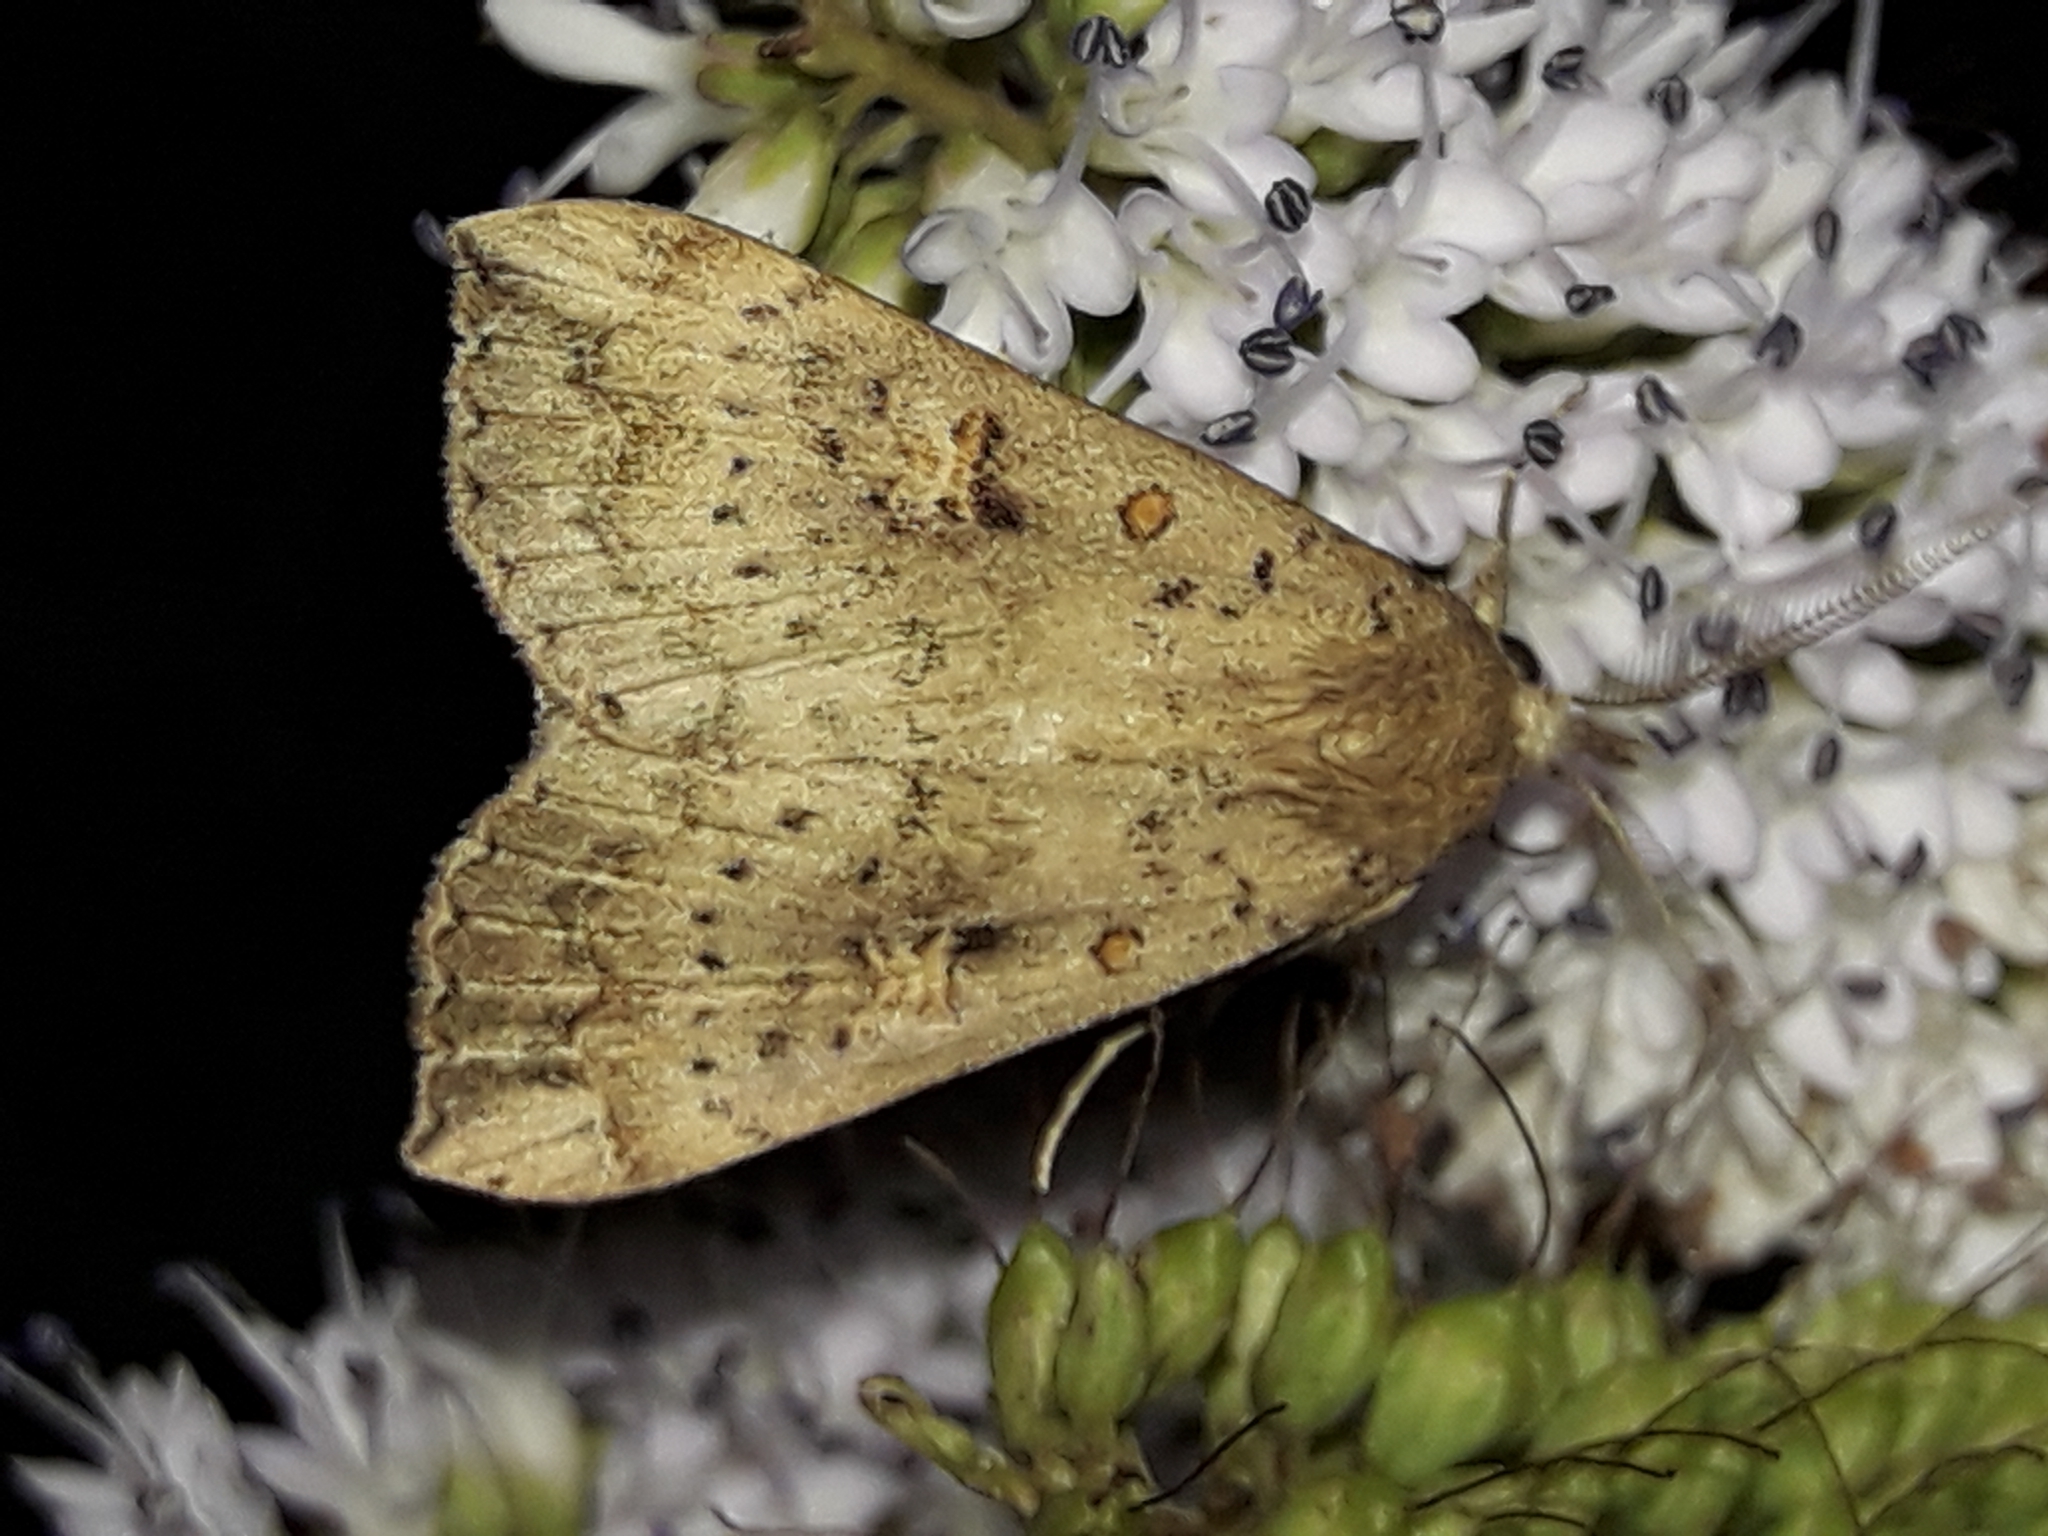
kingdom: Animalia
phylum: Arthropoda
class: Insecta
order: Lepidoptera
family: Erebidae
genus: Rhapsa
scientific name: Rhapsa scotosialis
